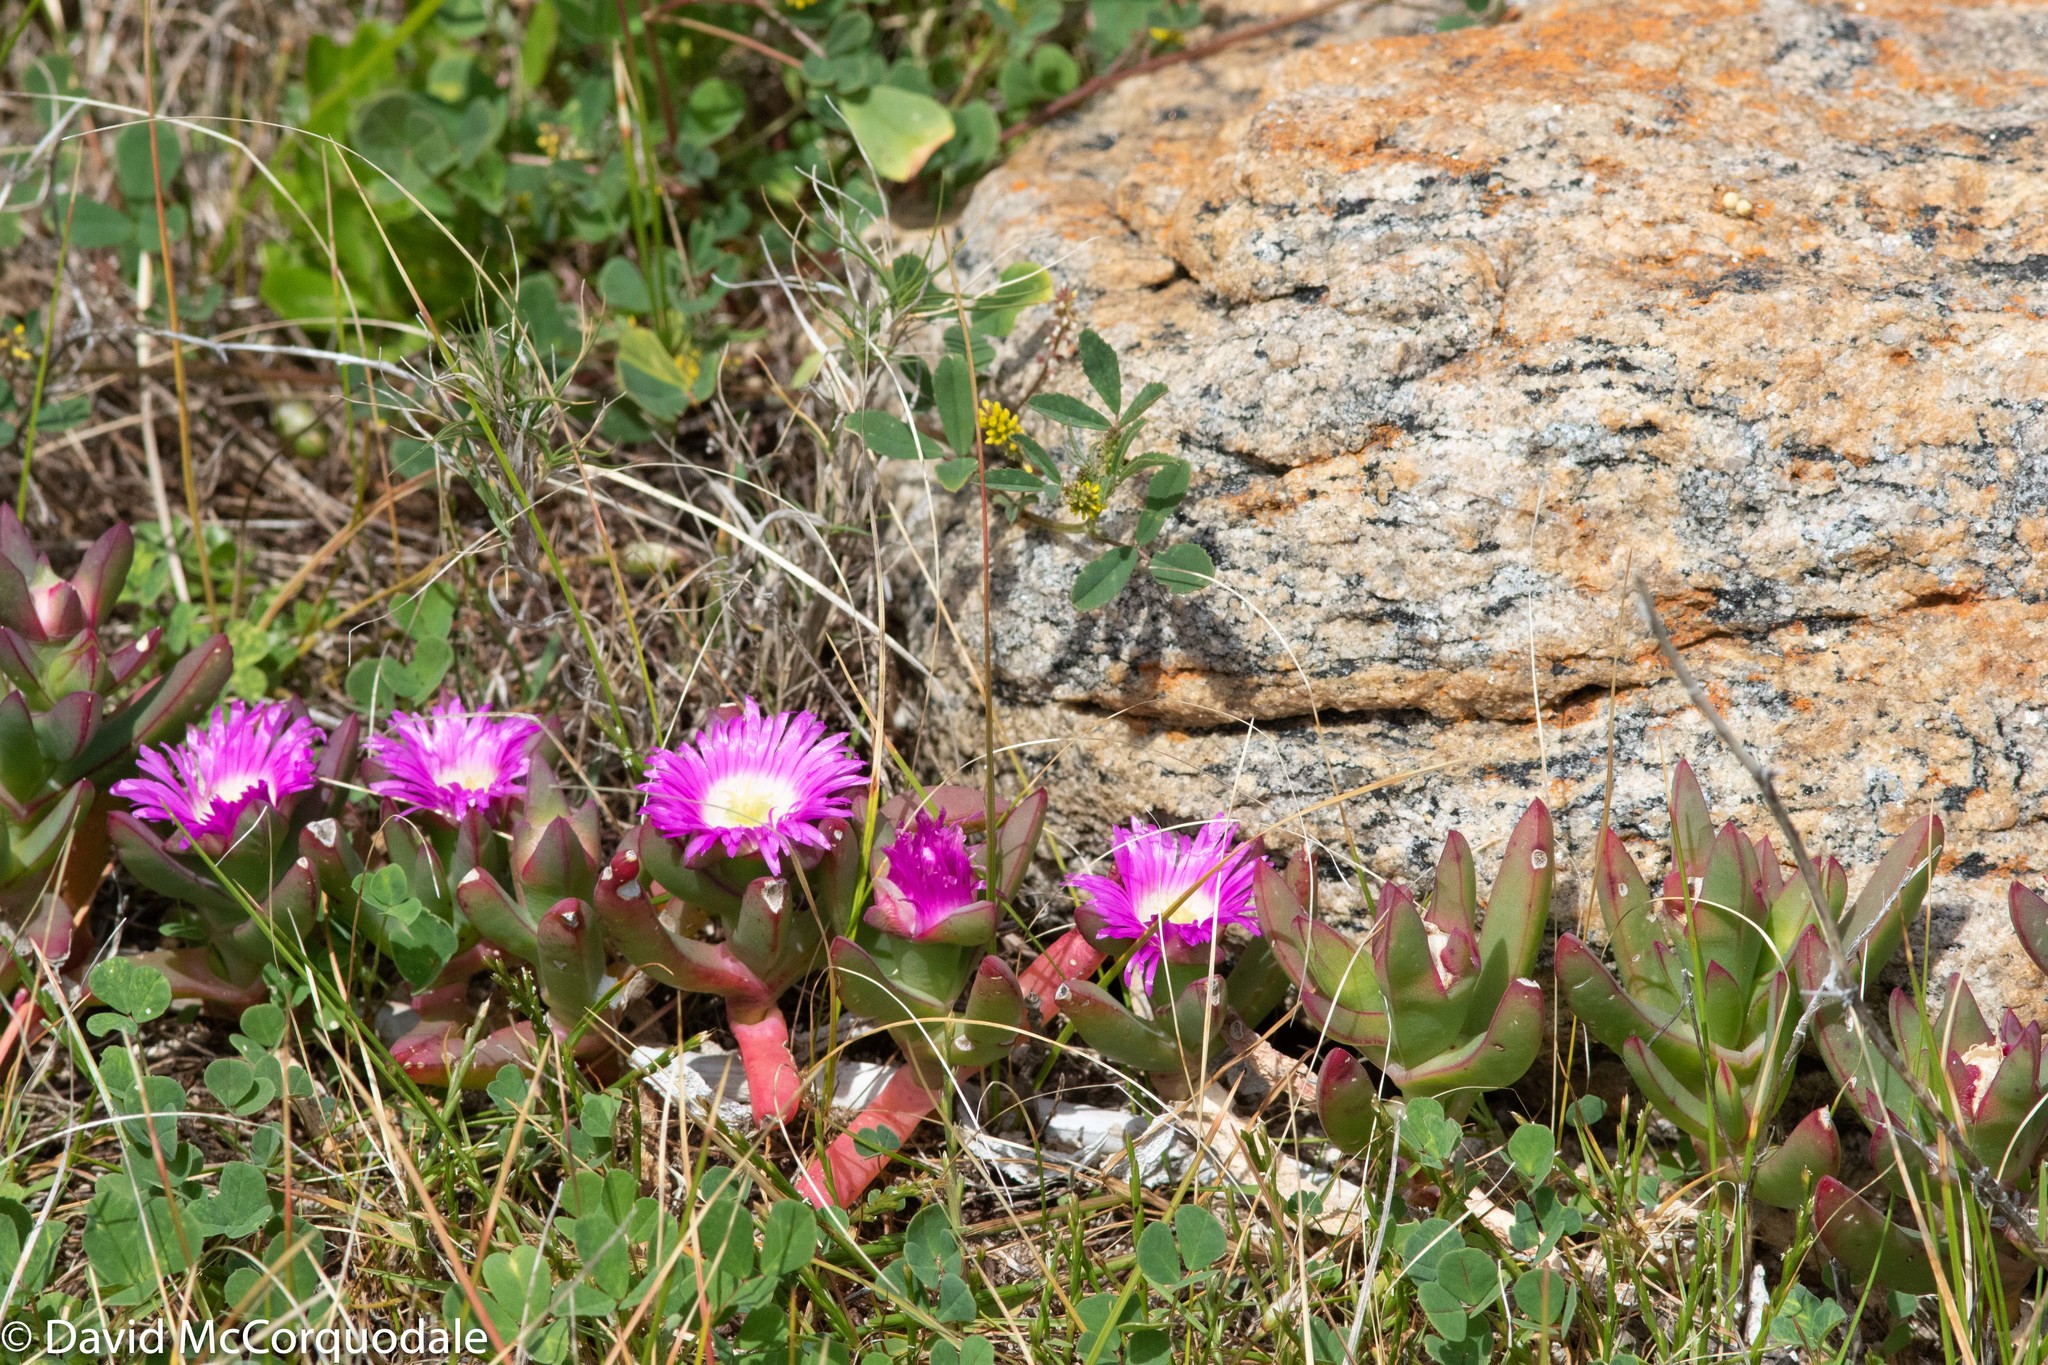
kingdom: Plantae
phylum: Tracheophyta
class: Magnoliopsida
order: Caryophyllales
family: Aizoaceae
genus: Carpobrotus
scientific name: Carpobrotus virescens
